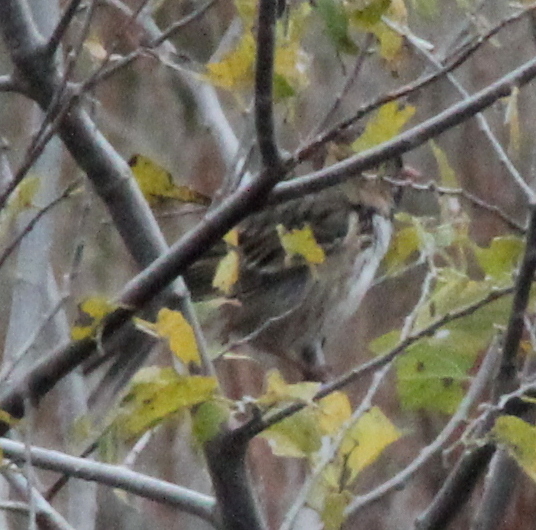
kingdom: Animalia
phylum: Chordata
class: Aves
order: Passeriformes
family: Passerellidae
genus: Zonotrichia
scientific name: Zonotrichia querula
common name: Harris's sparrow
